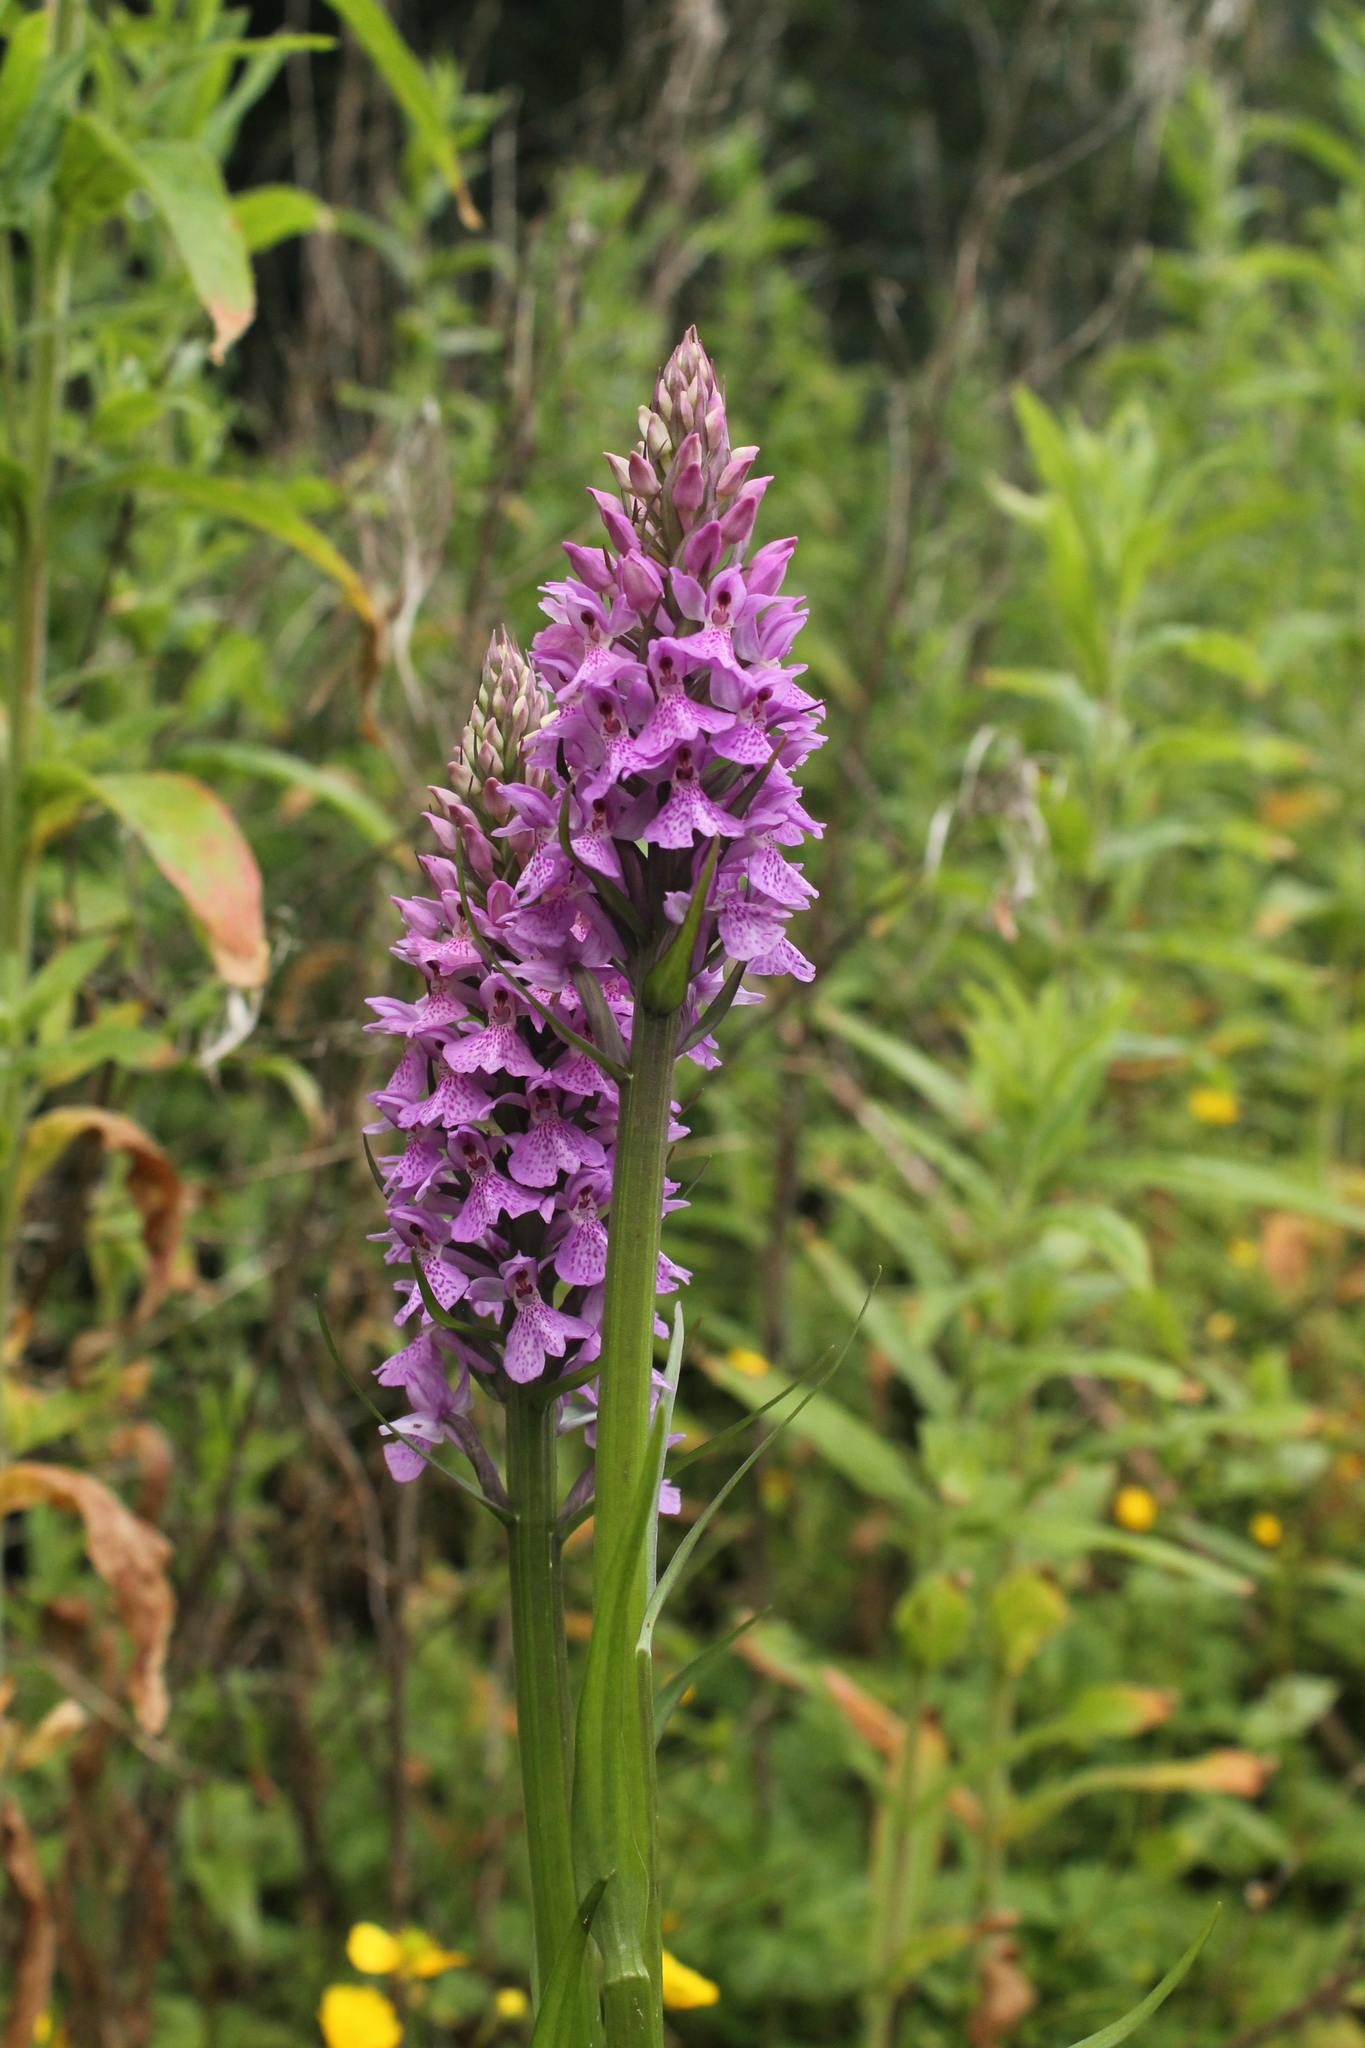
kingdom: Plantae
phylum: Tracheophyta
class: Liliopsida
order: Asparagales
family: Orchidaceae
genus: Dactylorhiza
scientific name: Dactylorhiza majalis
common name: Marsh orchid
